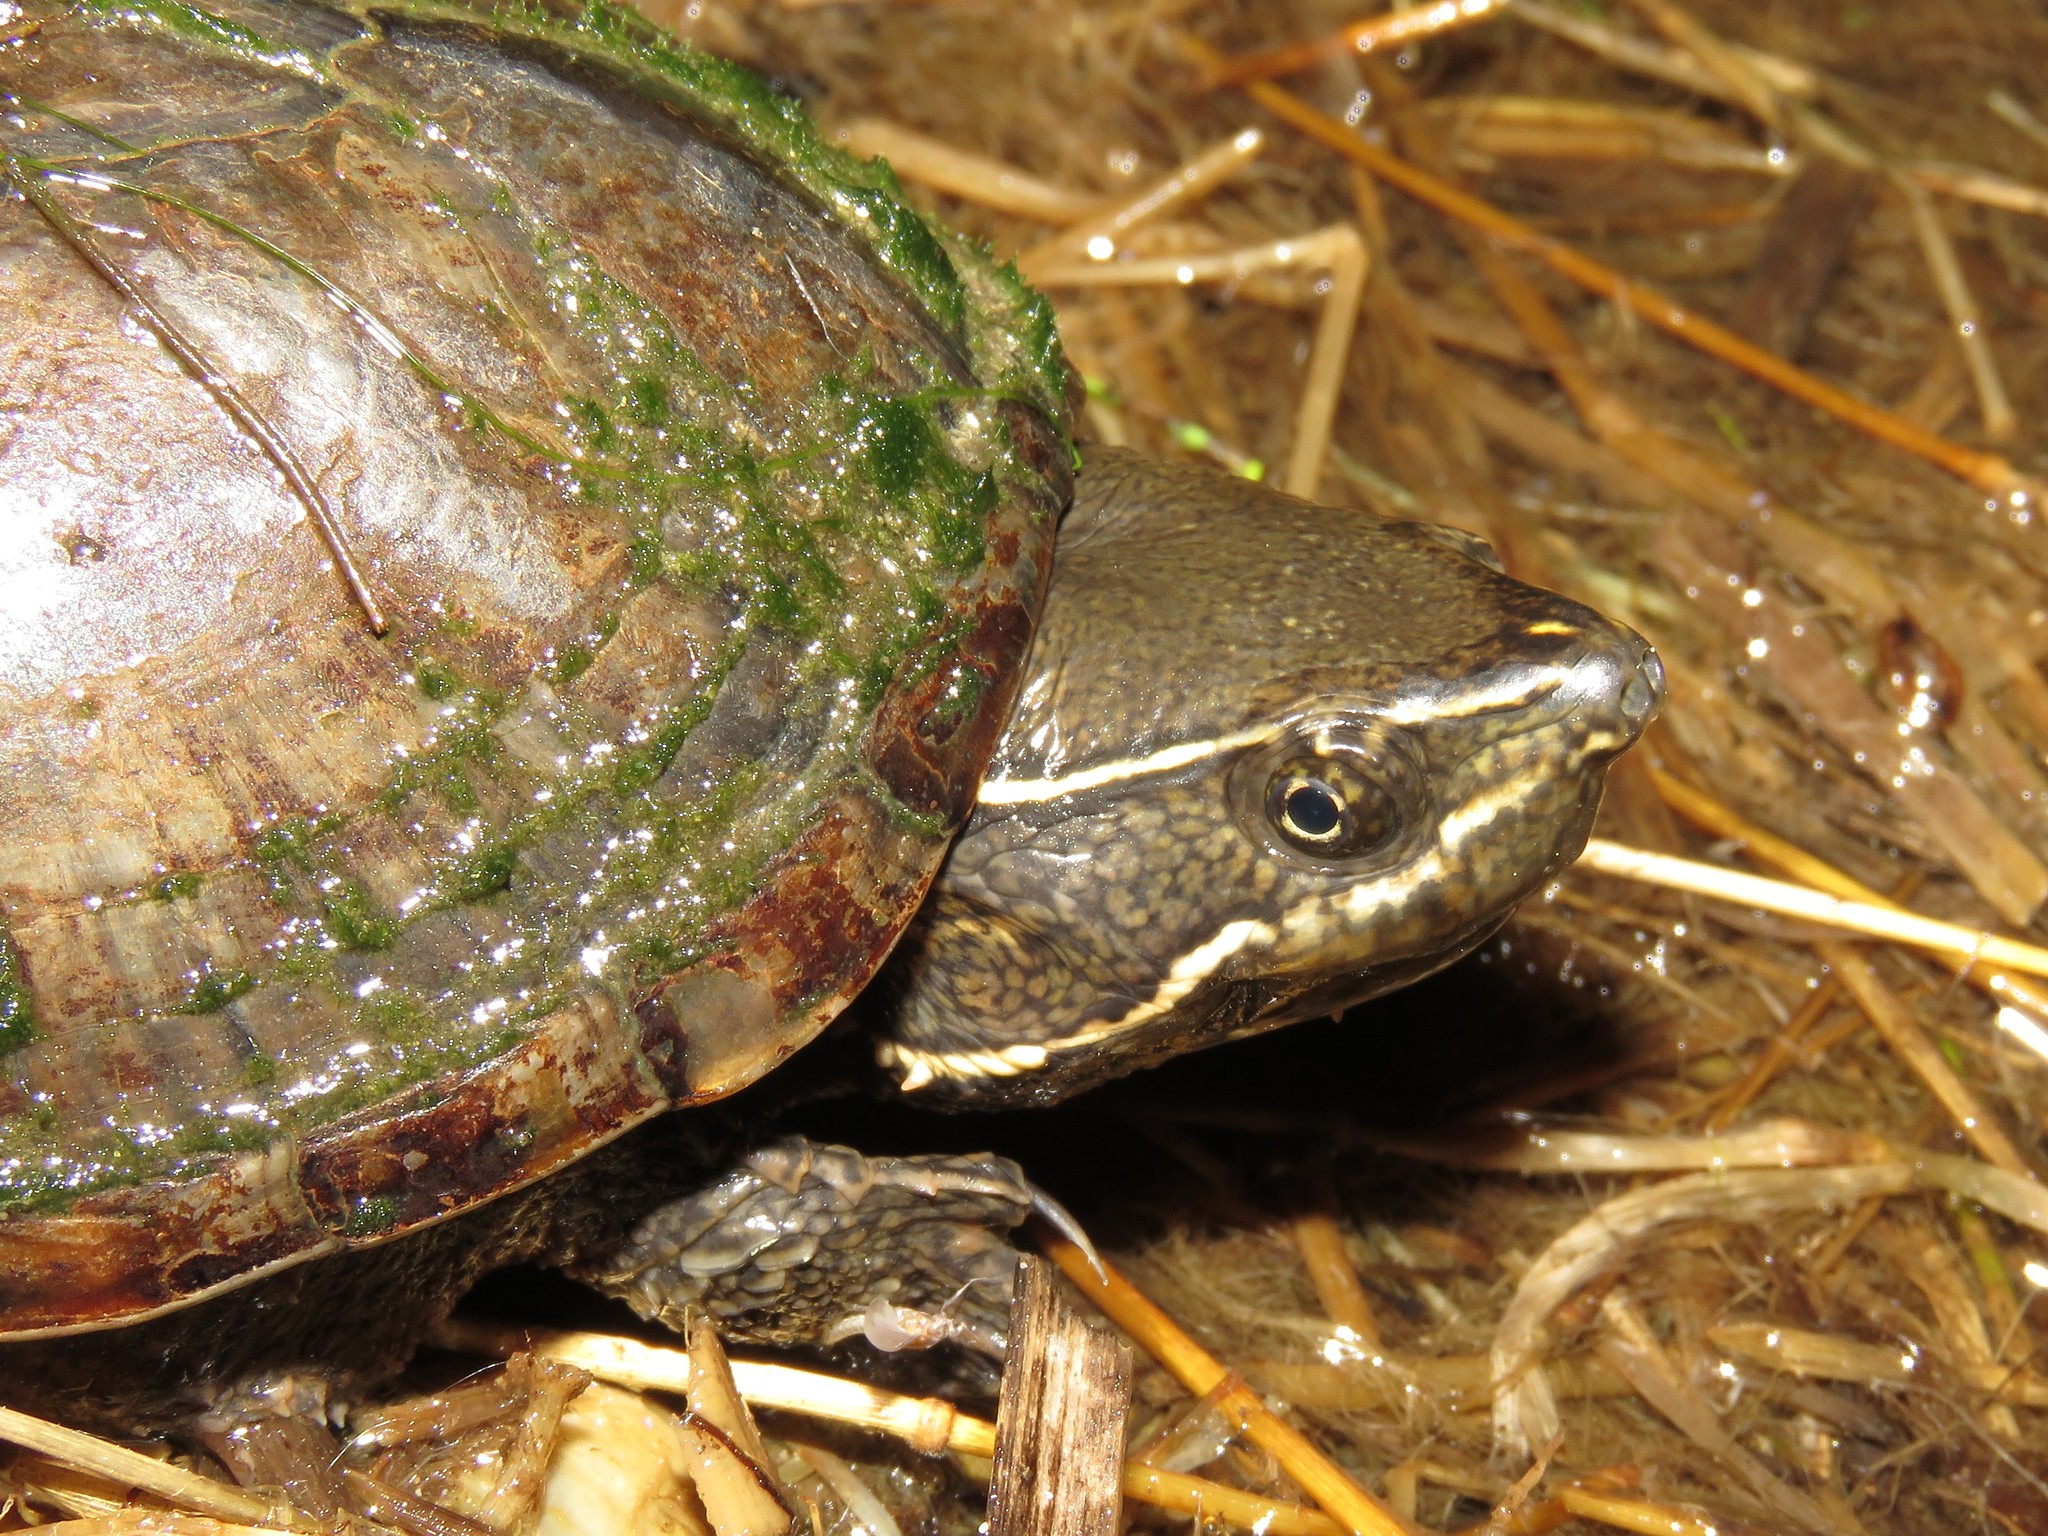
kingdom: Animalia
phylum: Chordata
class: Testudines
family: Kinosternidae
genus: Sternotherus
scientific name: Sternotherus odoratus
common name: Common musk turtle
